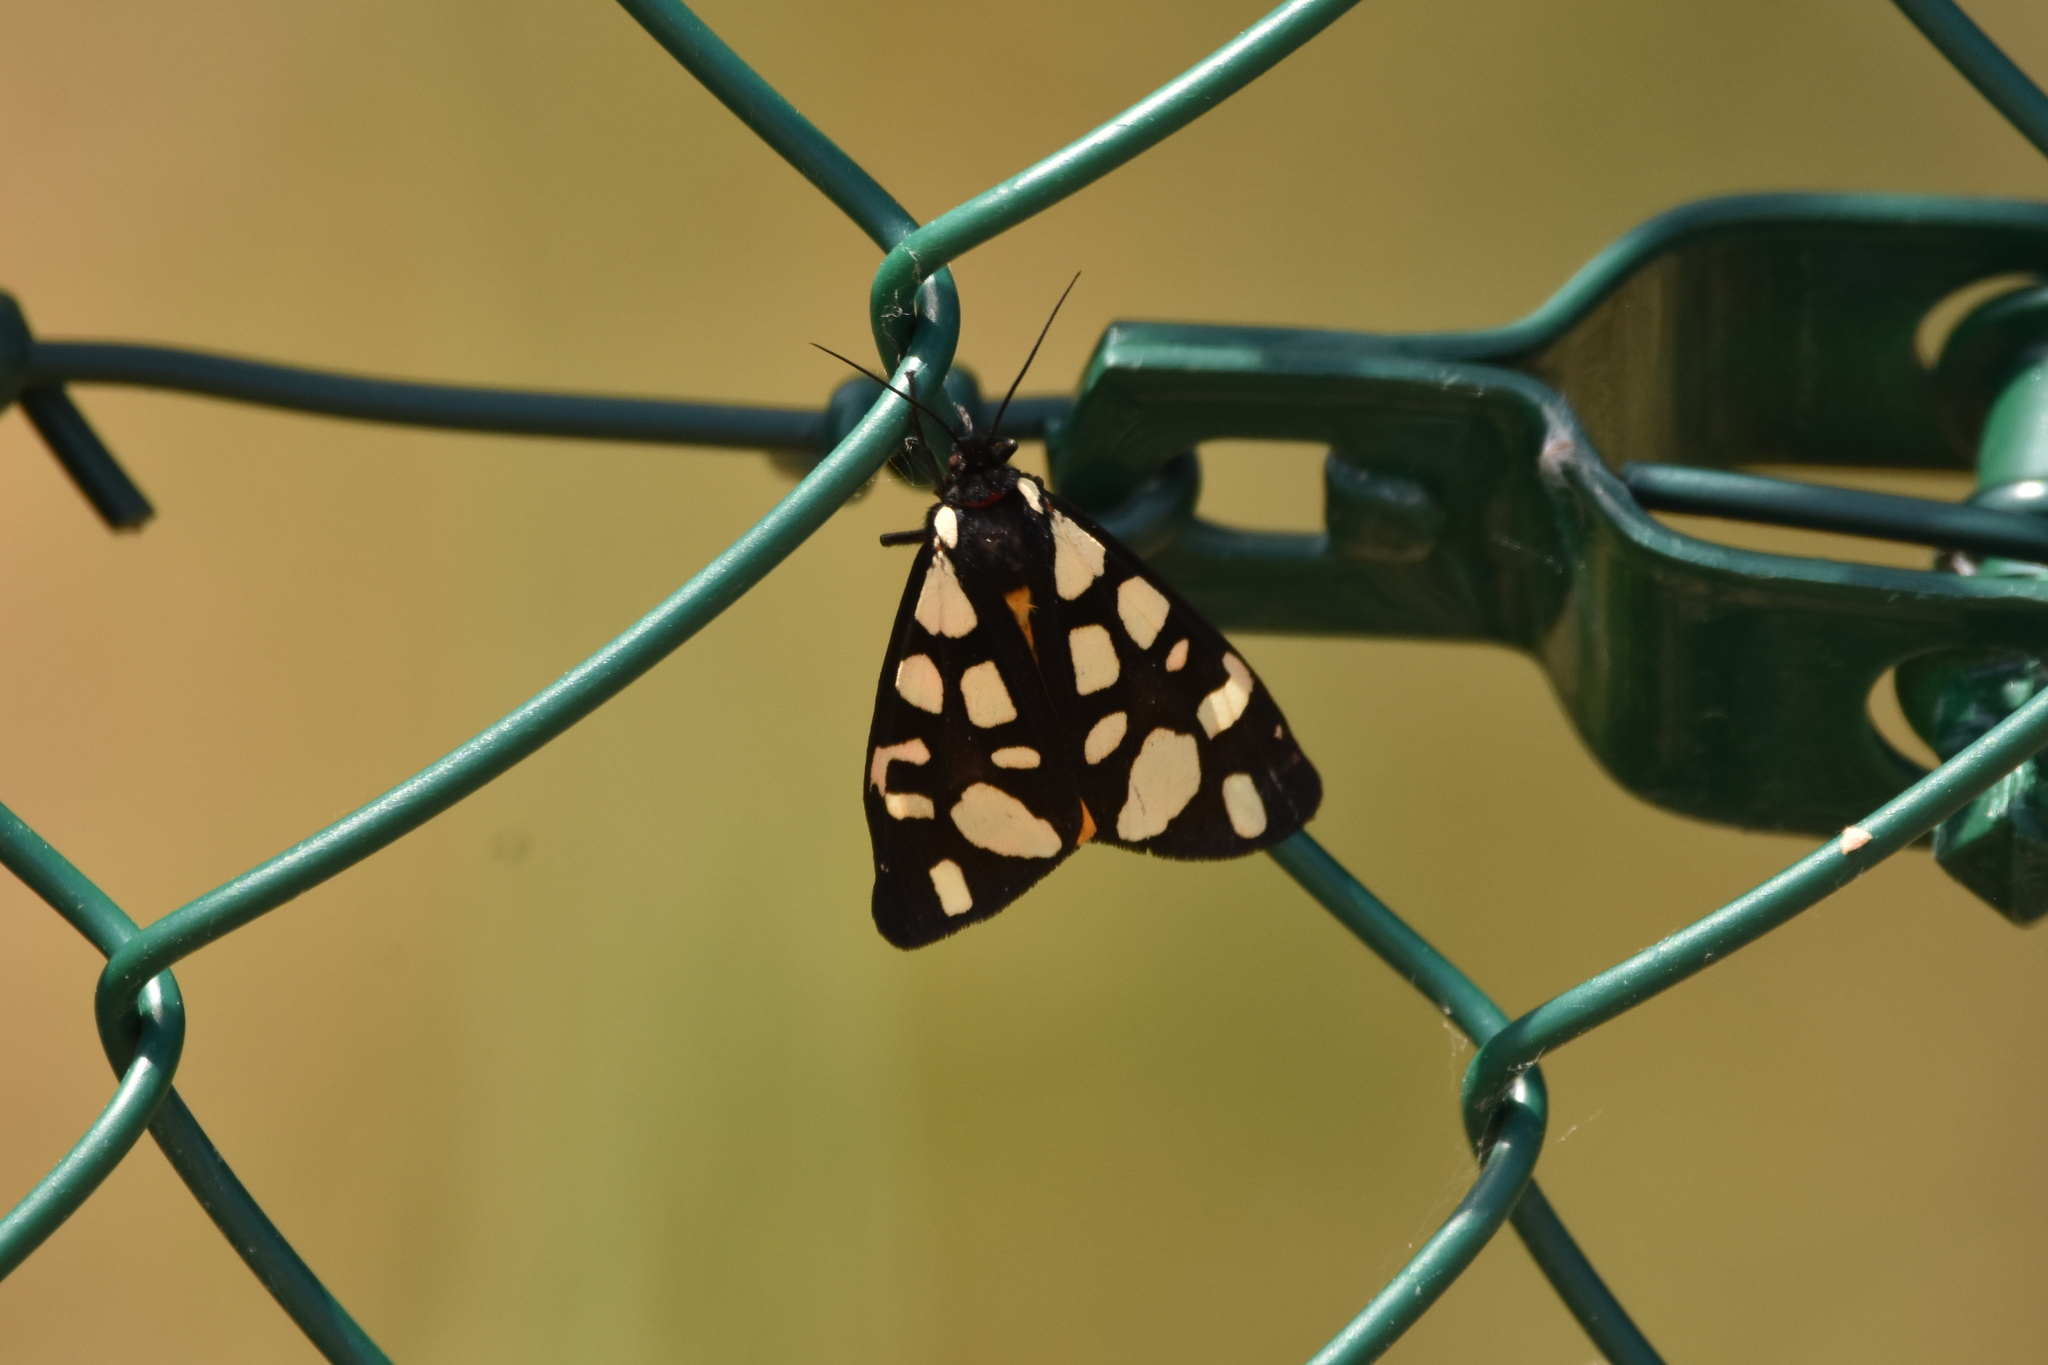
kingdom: Animalia
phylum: Arthropoda
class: Insecta
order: Lepidoptera
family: Erebidae
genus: Epicallia
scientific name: Epicallia villica
